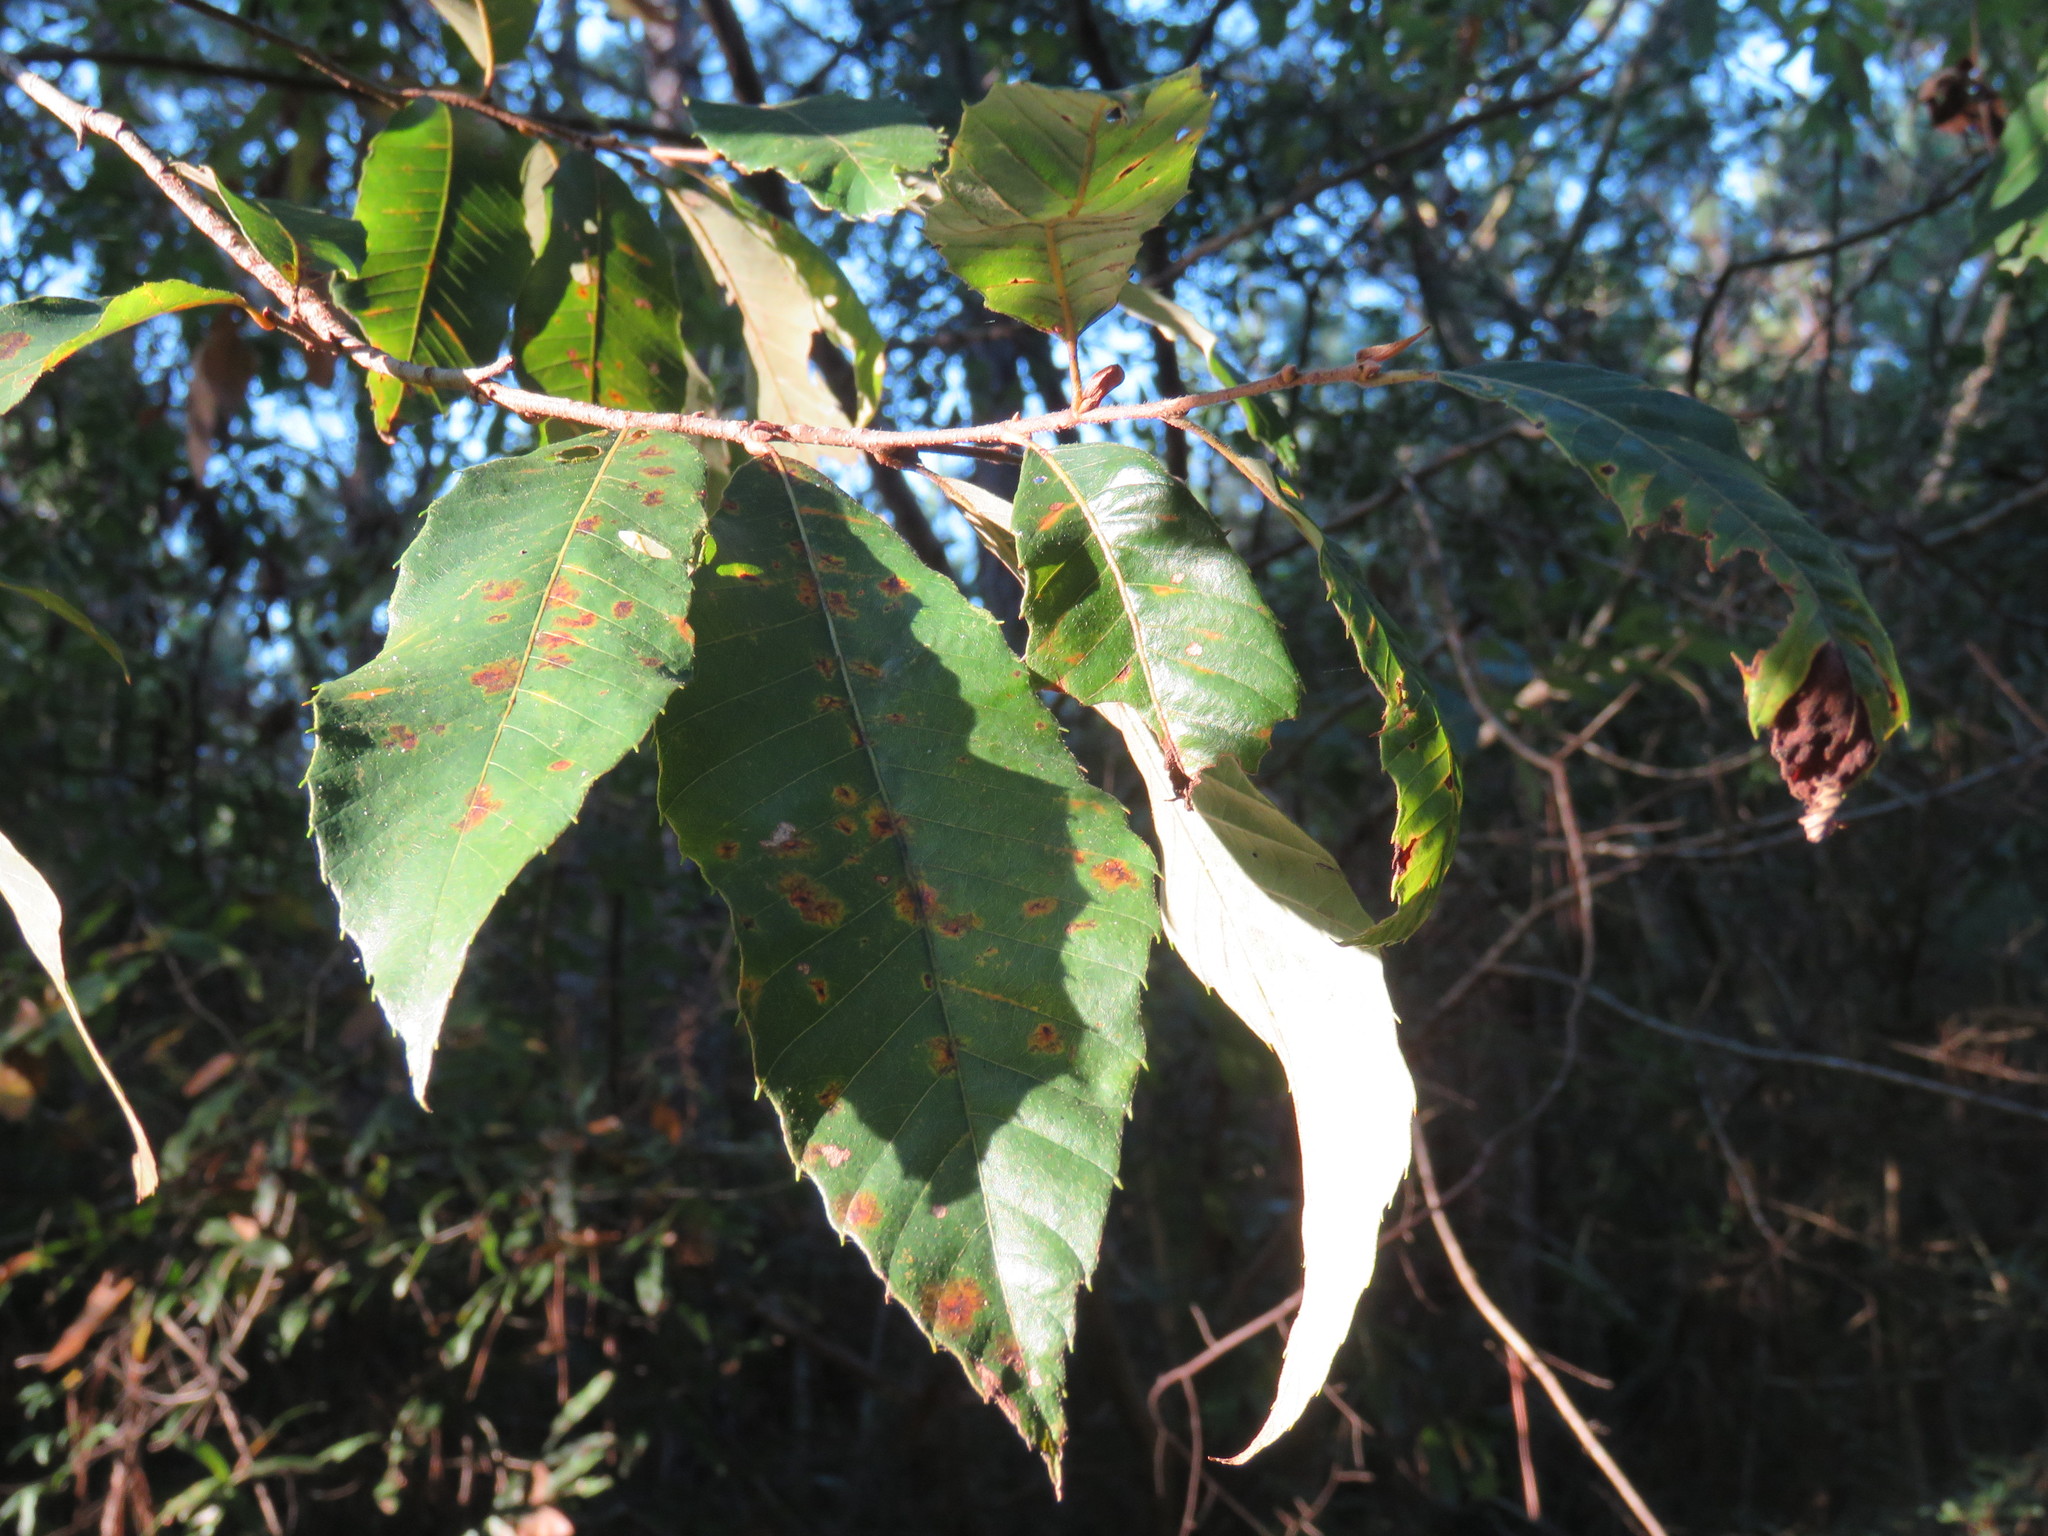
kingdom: Plantae
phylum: Tracheophyta
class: Magnoliopsida
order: Fagales
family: Fagaceae
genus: Castanea
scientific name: Castanea pumila
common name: Chinkapin
